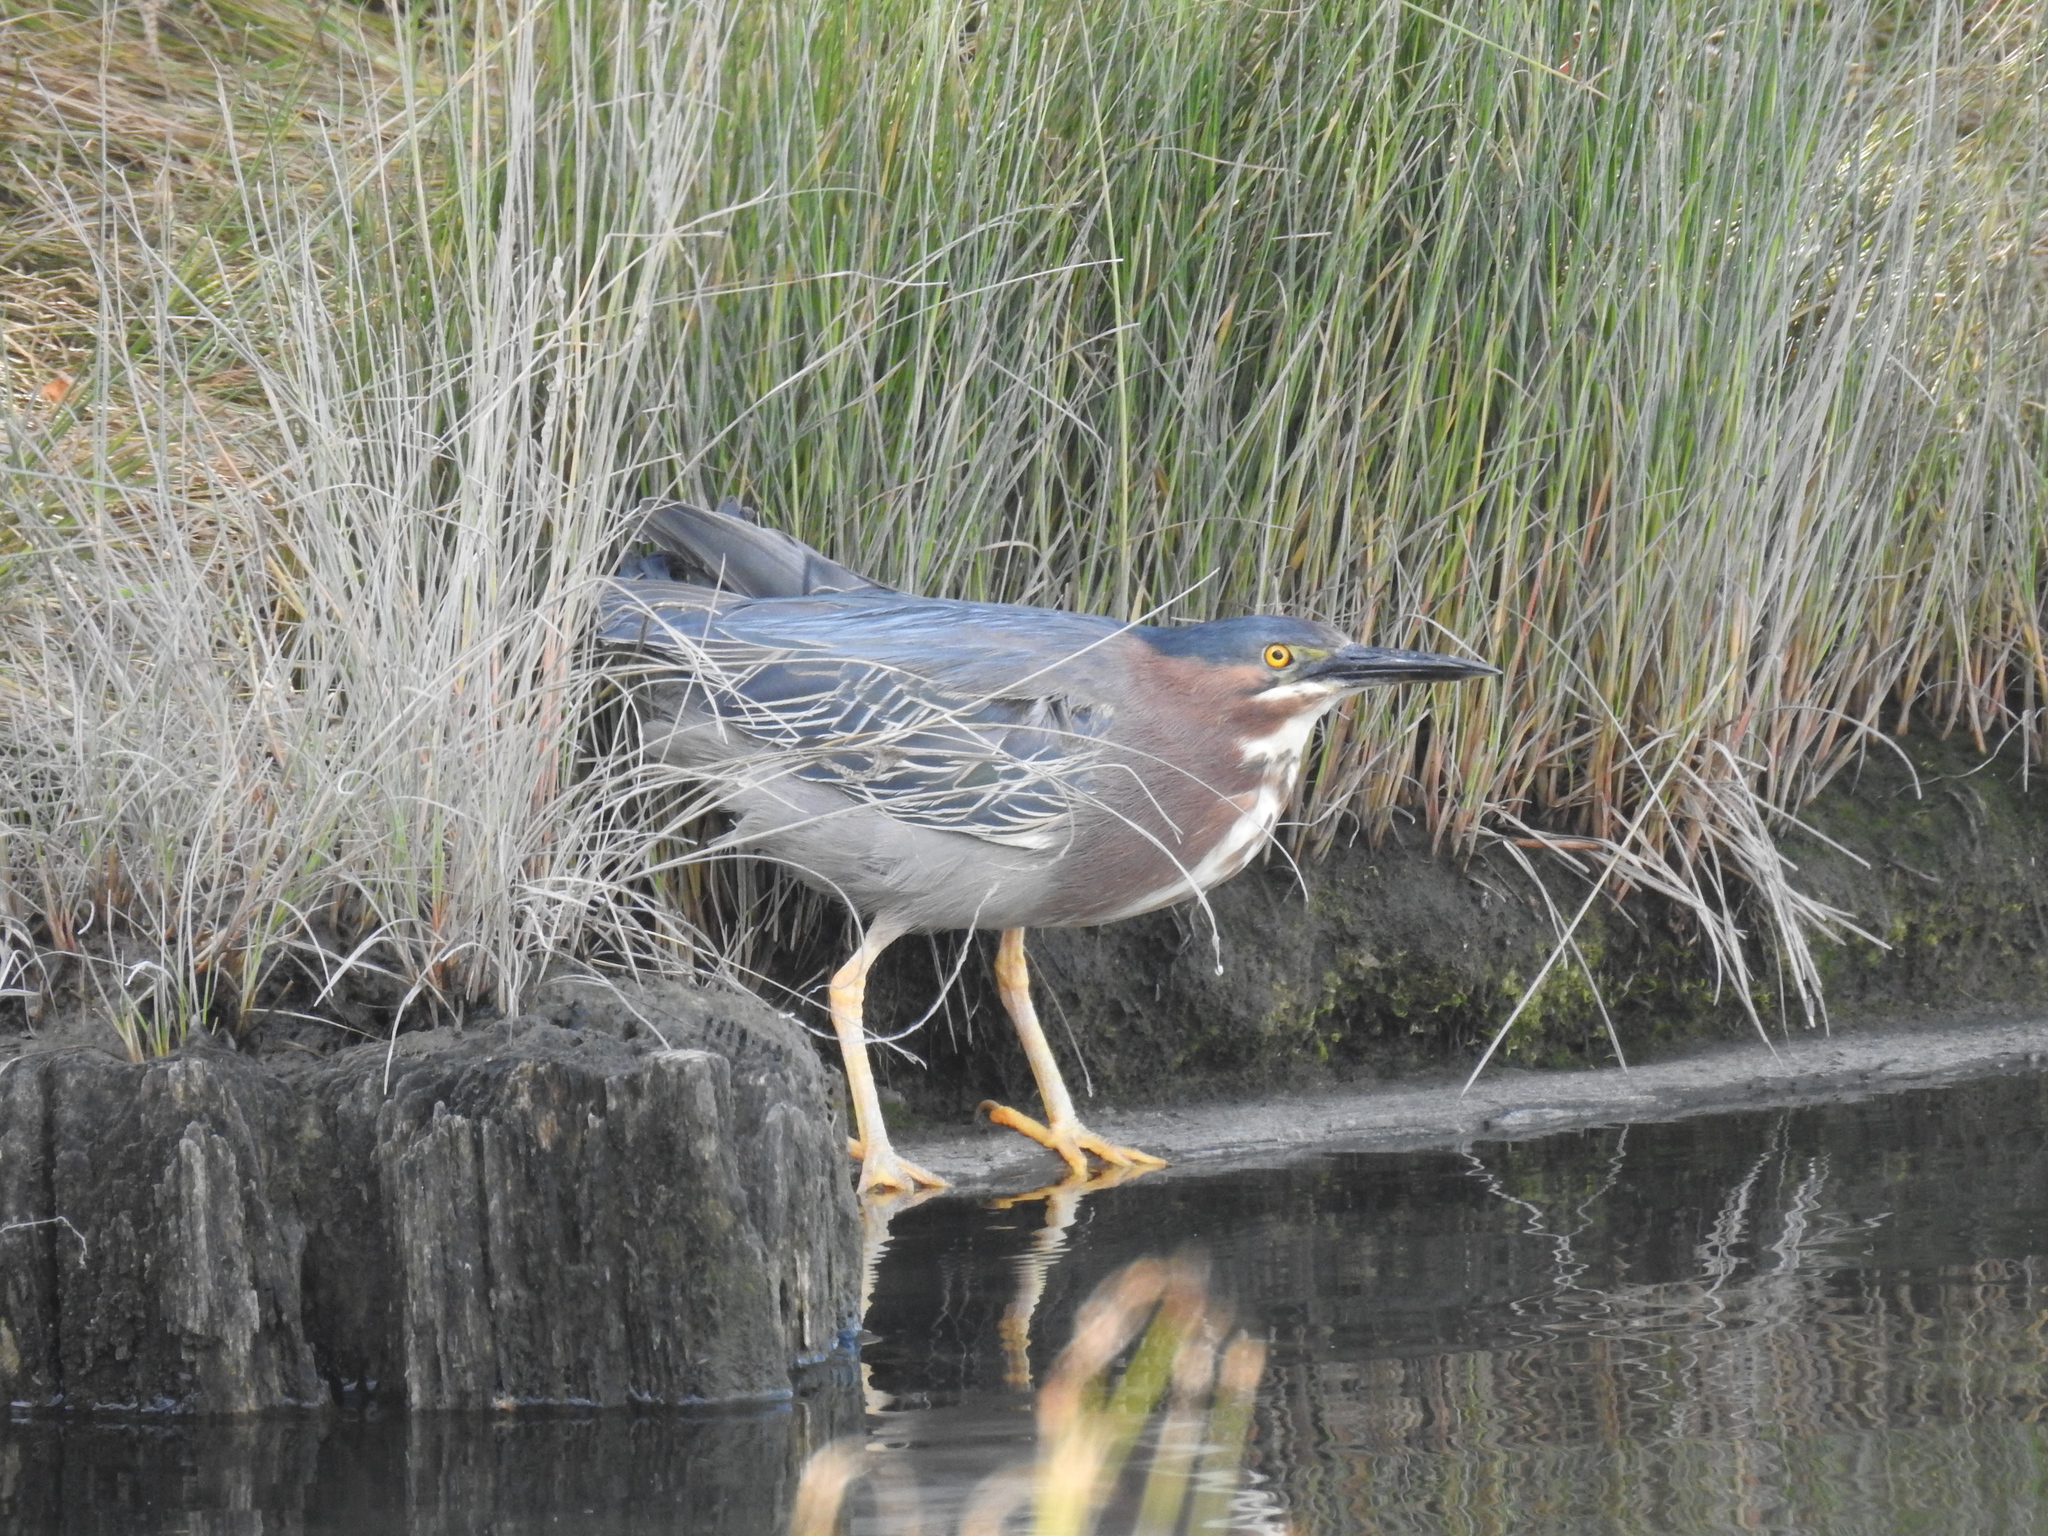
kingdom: Animalia
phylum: Chordata
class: Aves
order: Pelecaniformes
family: Ardeidae
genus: Butorides
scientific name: Butorides virescens
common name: Green heron
